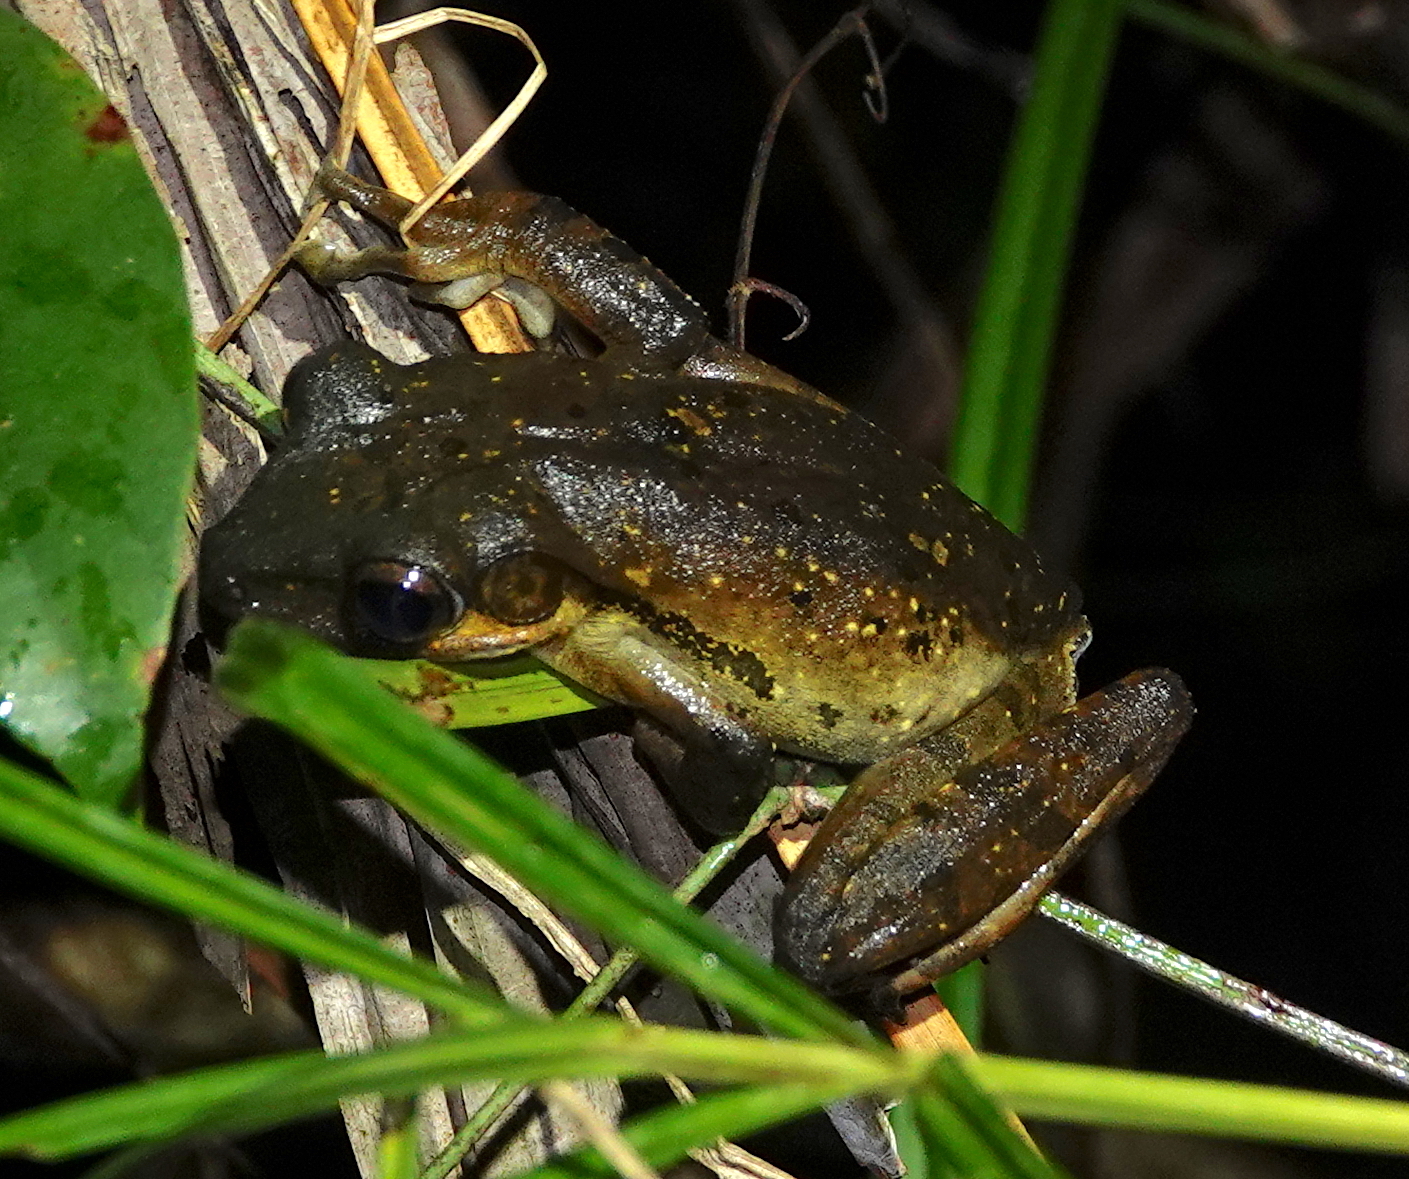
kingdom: Animalia
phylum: Chordata
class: Amphibia
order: Anura
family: Rhacophoridae
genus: Polypedates
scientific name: Polypedates macrotis
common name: Dark-eared tree frog
